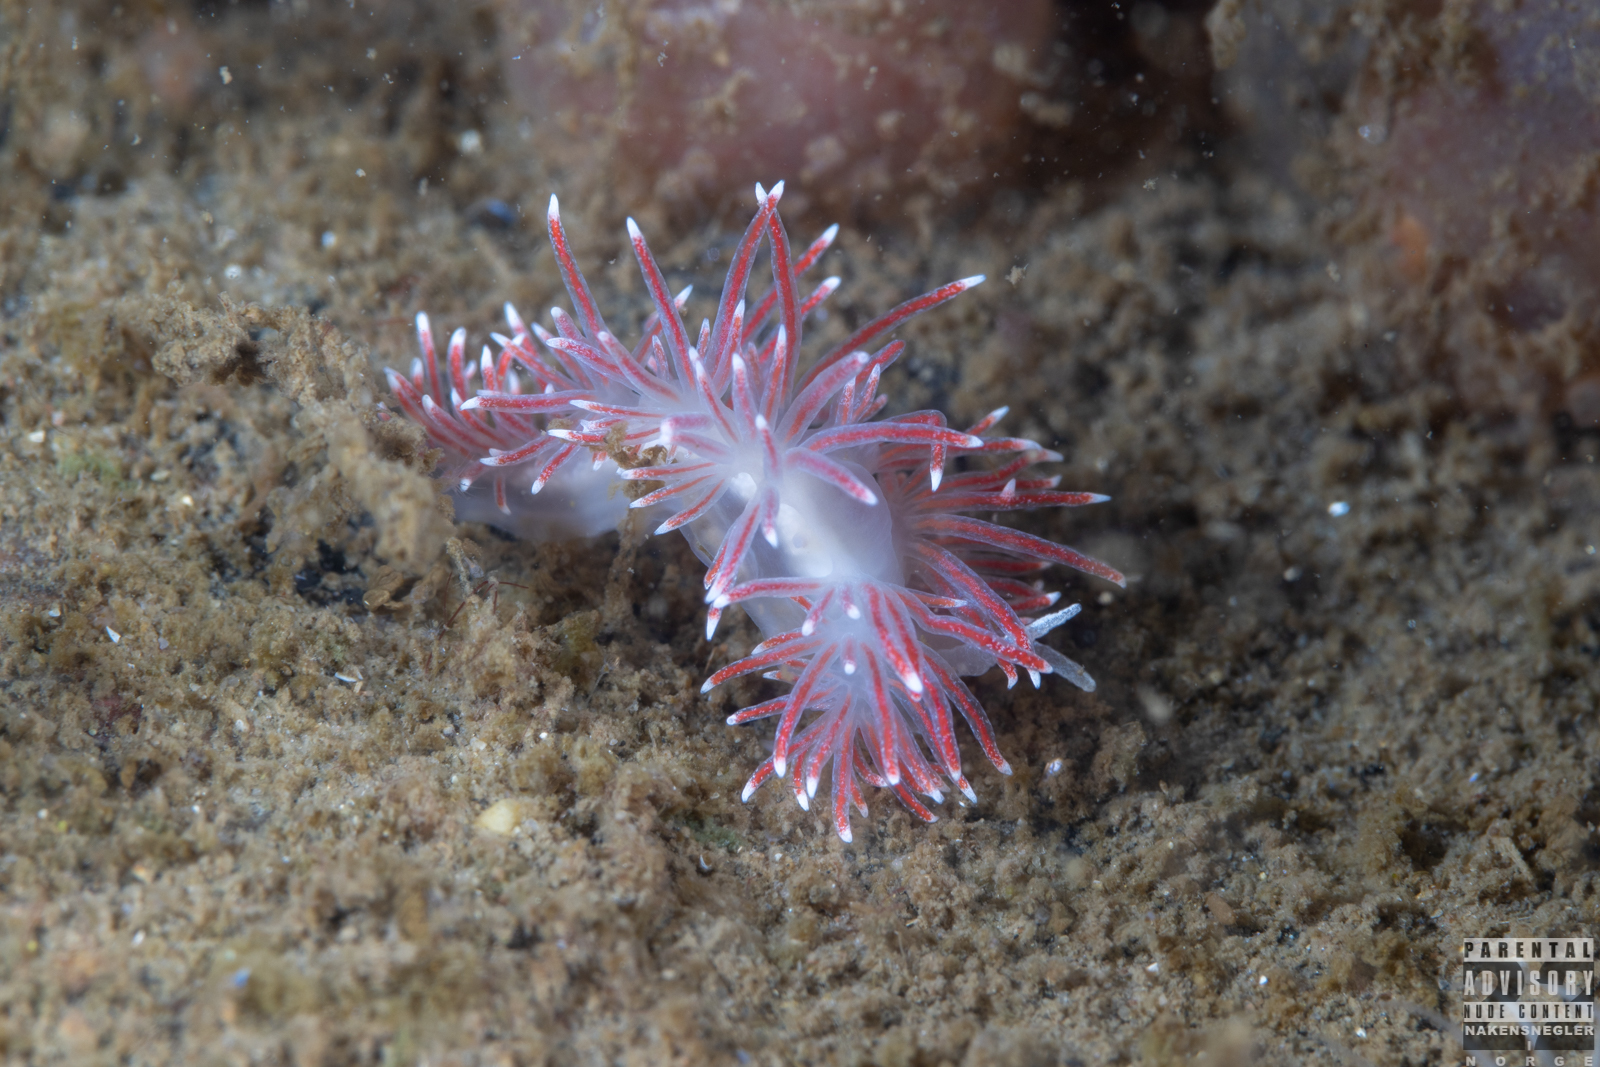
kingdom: Animalia
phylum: Mollusca
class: Gastropoda
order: Nudibranchia
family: Flabellinidae
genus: Carronella
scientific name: Carronella pellucida
